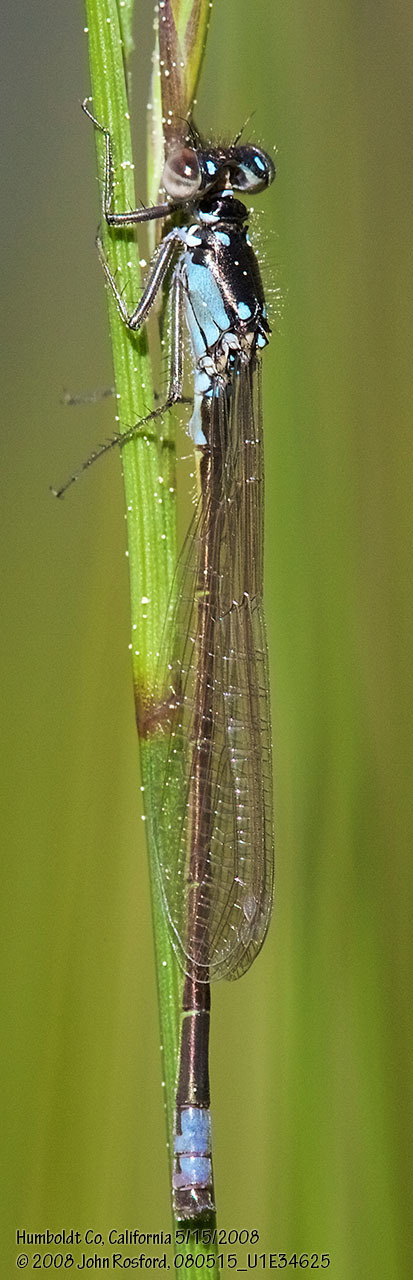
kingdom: Animalia
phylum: Arthropoda
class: Insecta
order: Odonata
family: Coenagrionidae
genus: Ischnura
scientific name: Ischnura cervula
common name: Pacific forktail
